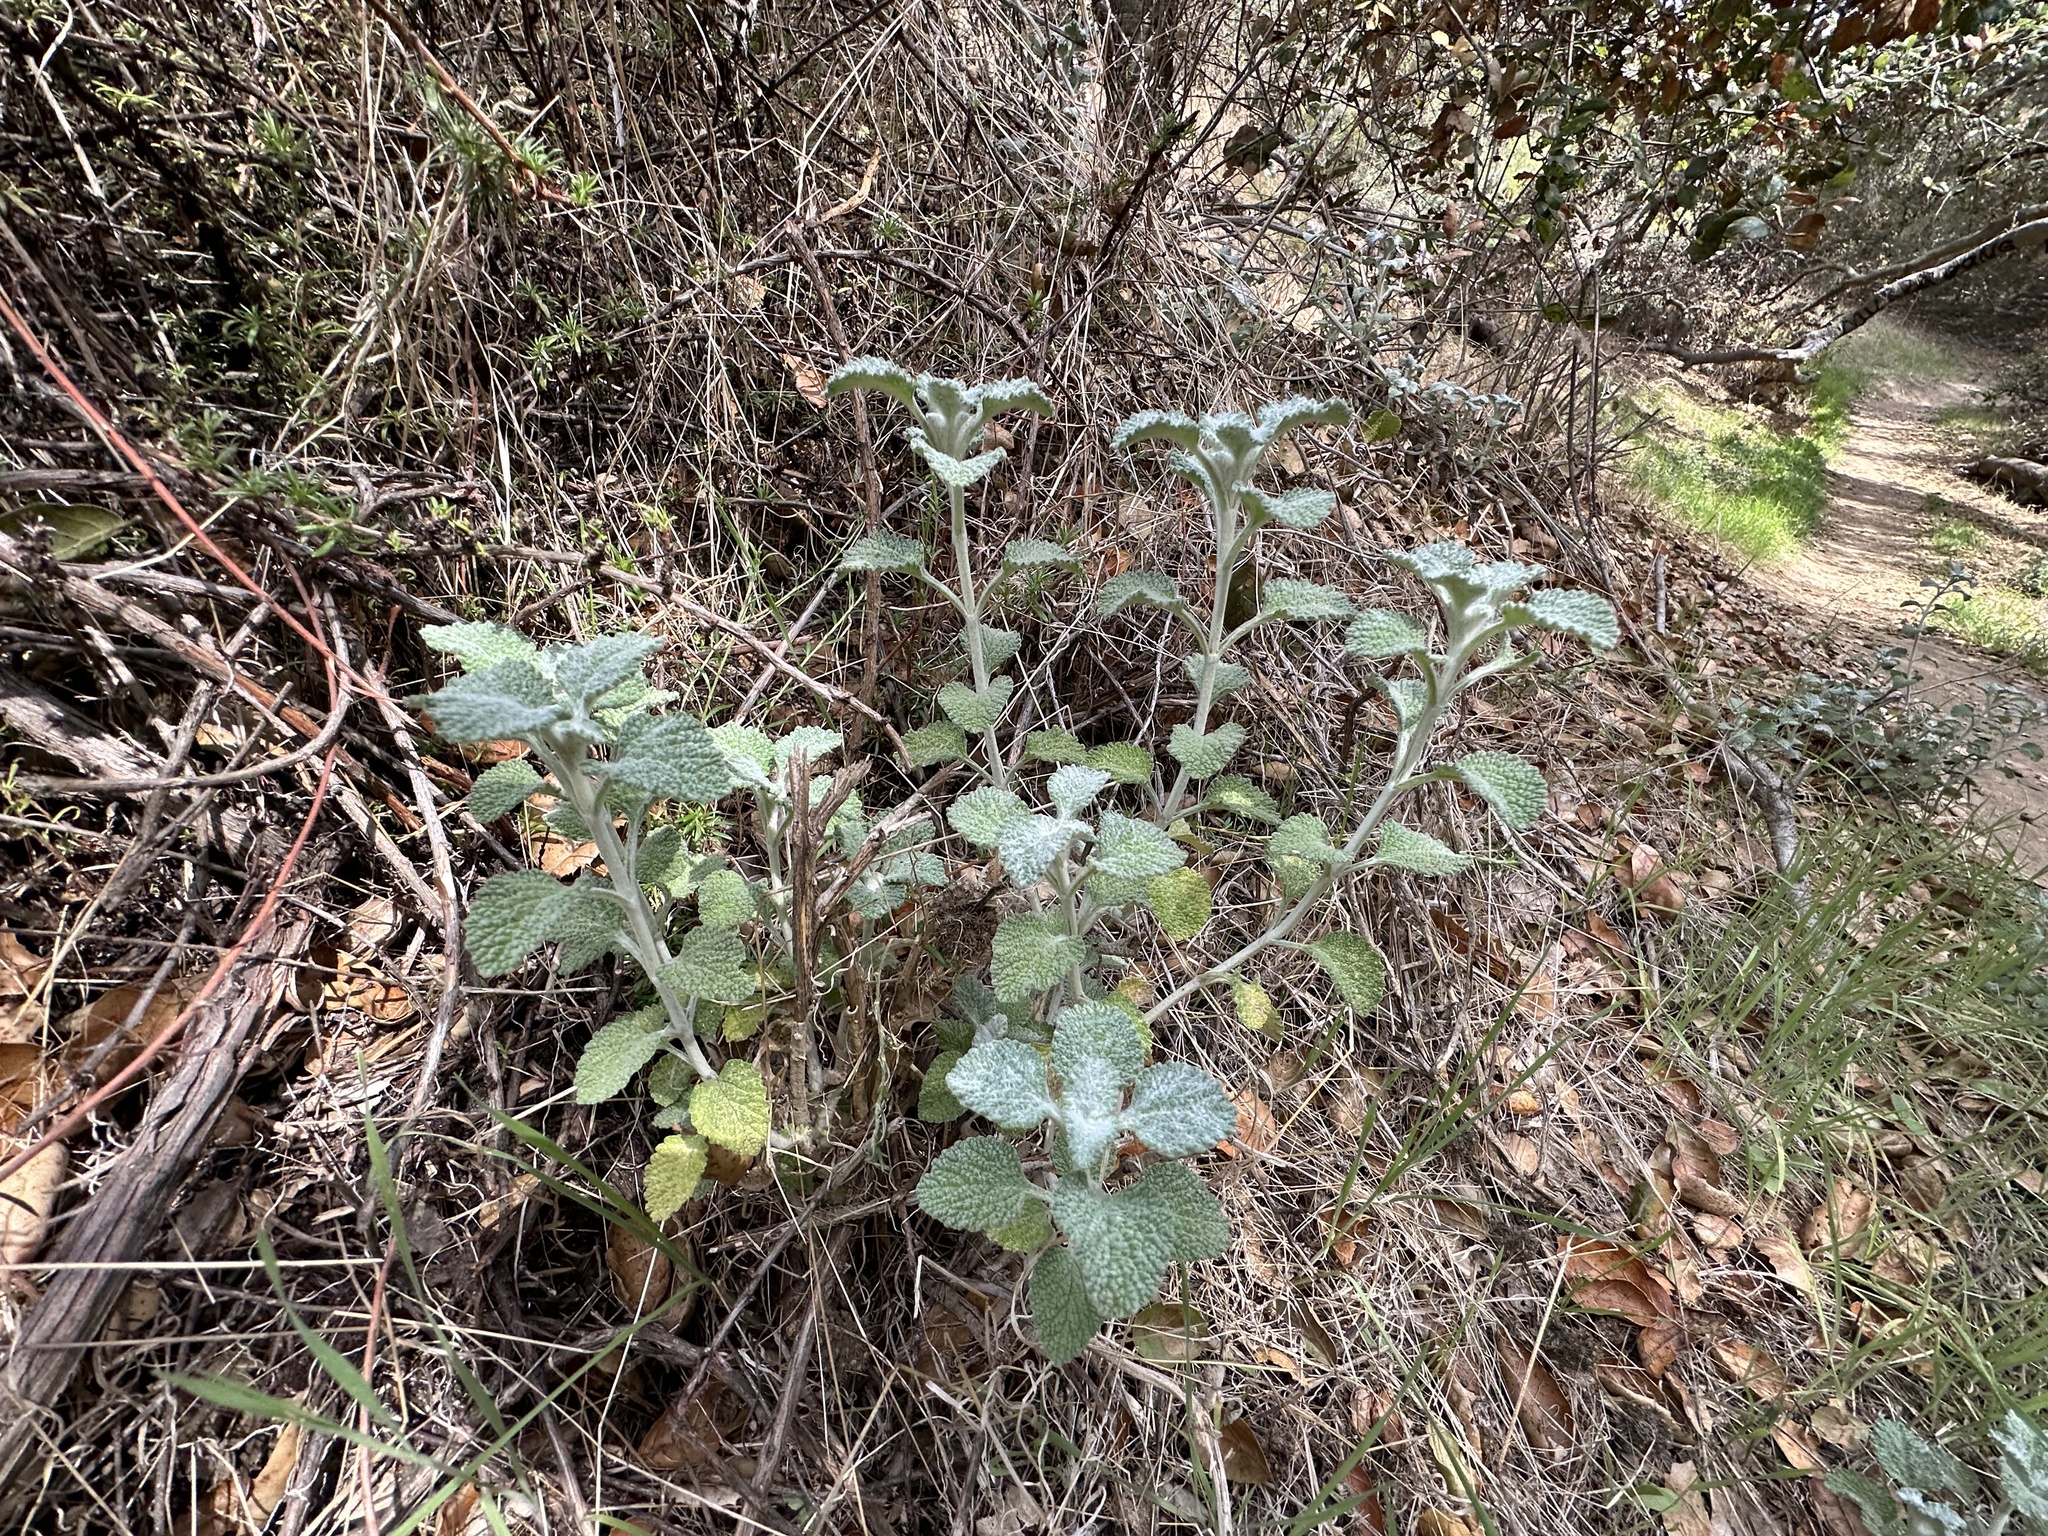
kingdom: Plantae
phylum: Tracheophyta
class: Magnoliopsida
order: Lamiales
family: Lamiaceae
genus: Marrubium
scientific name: Marrubium vulgare
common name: Horehound
